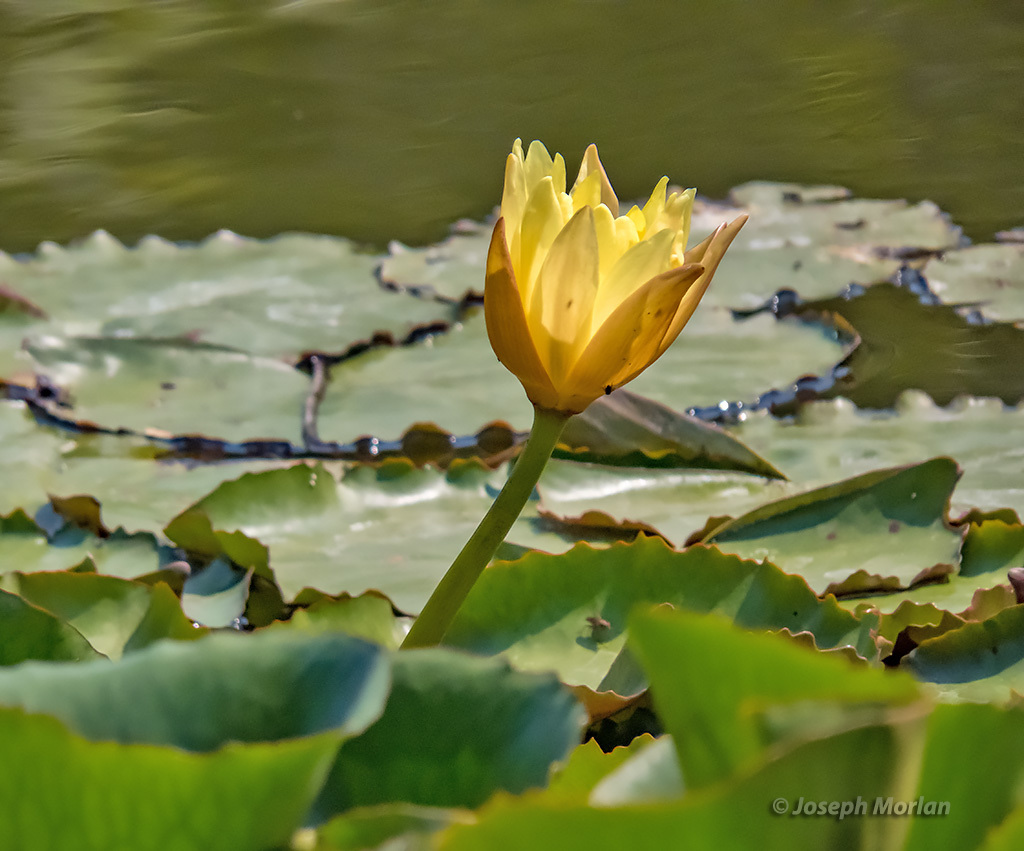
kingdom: Plantae
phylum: Tracheophyta
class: Magnoliopsida
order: Nymphaeales
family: Nymphaeaceae
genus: Nymphaea
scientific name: Nymphaea mexicana
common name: Banana water-lily
